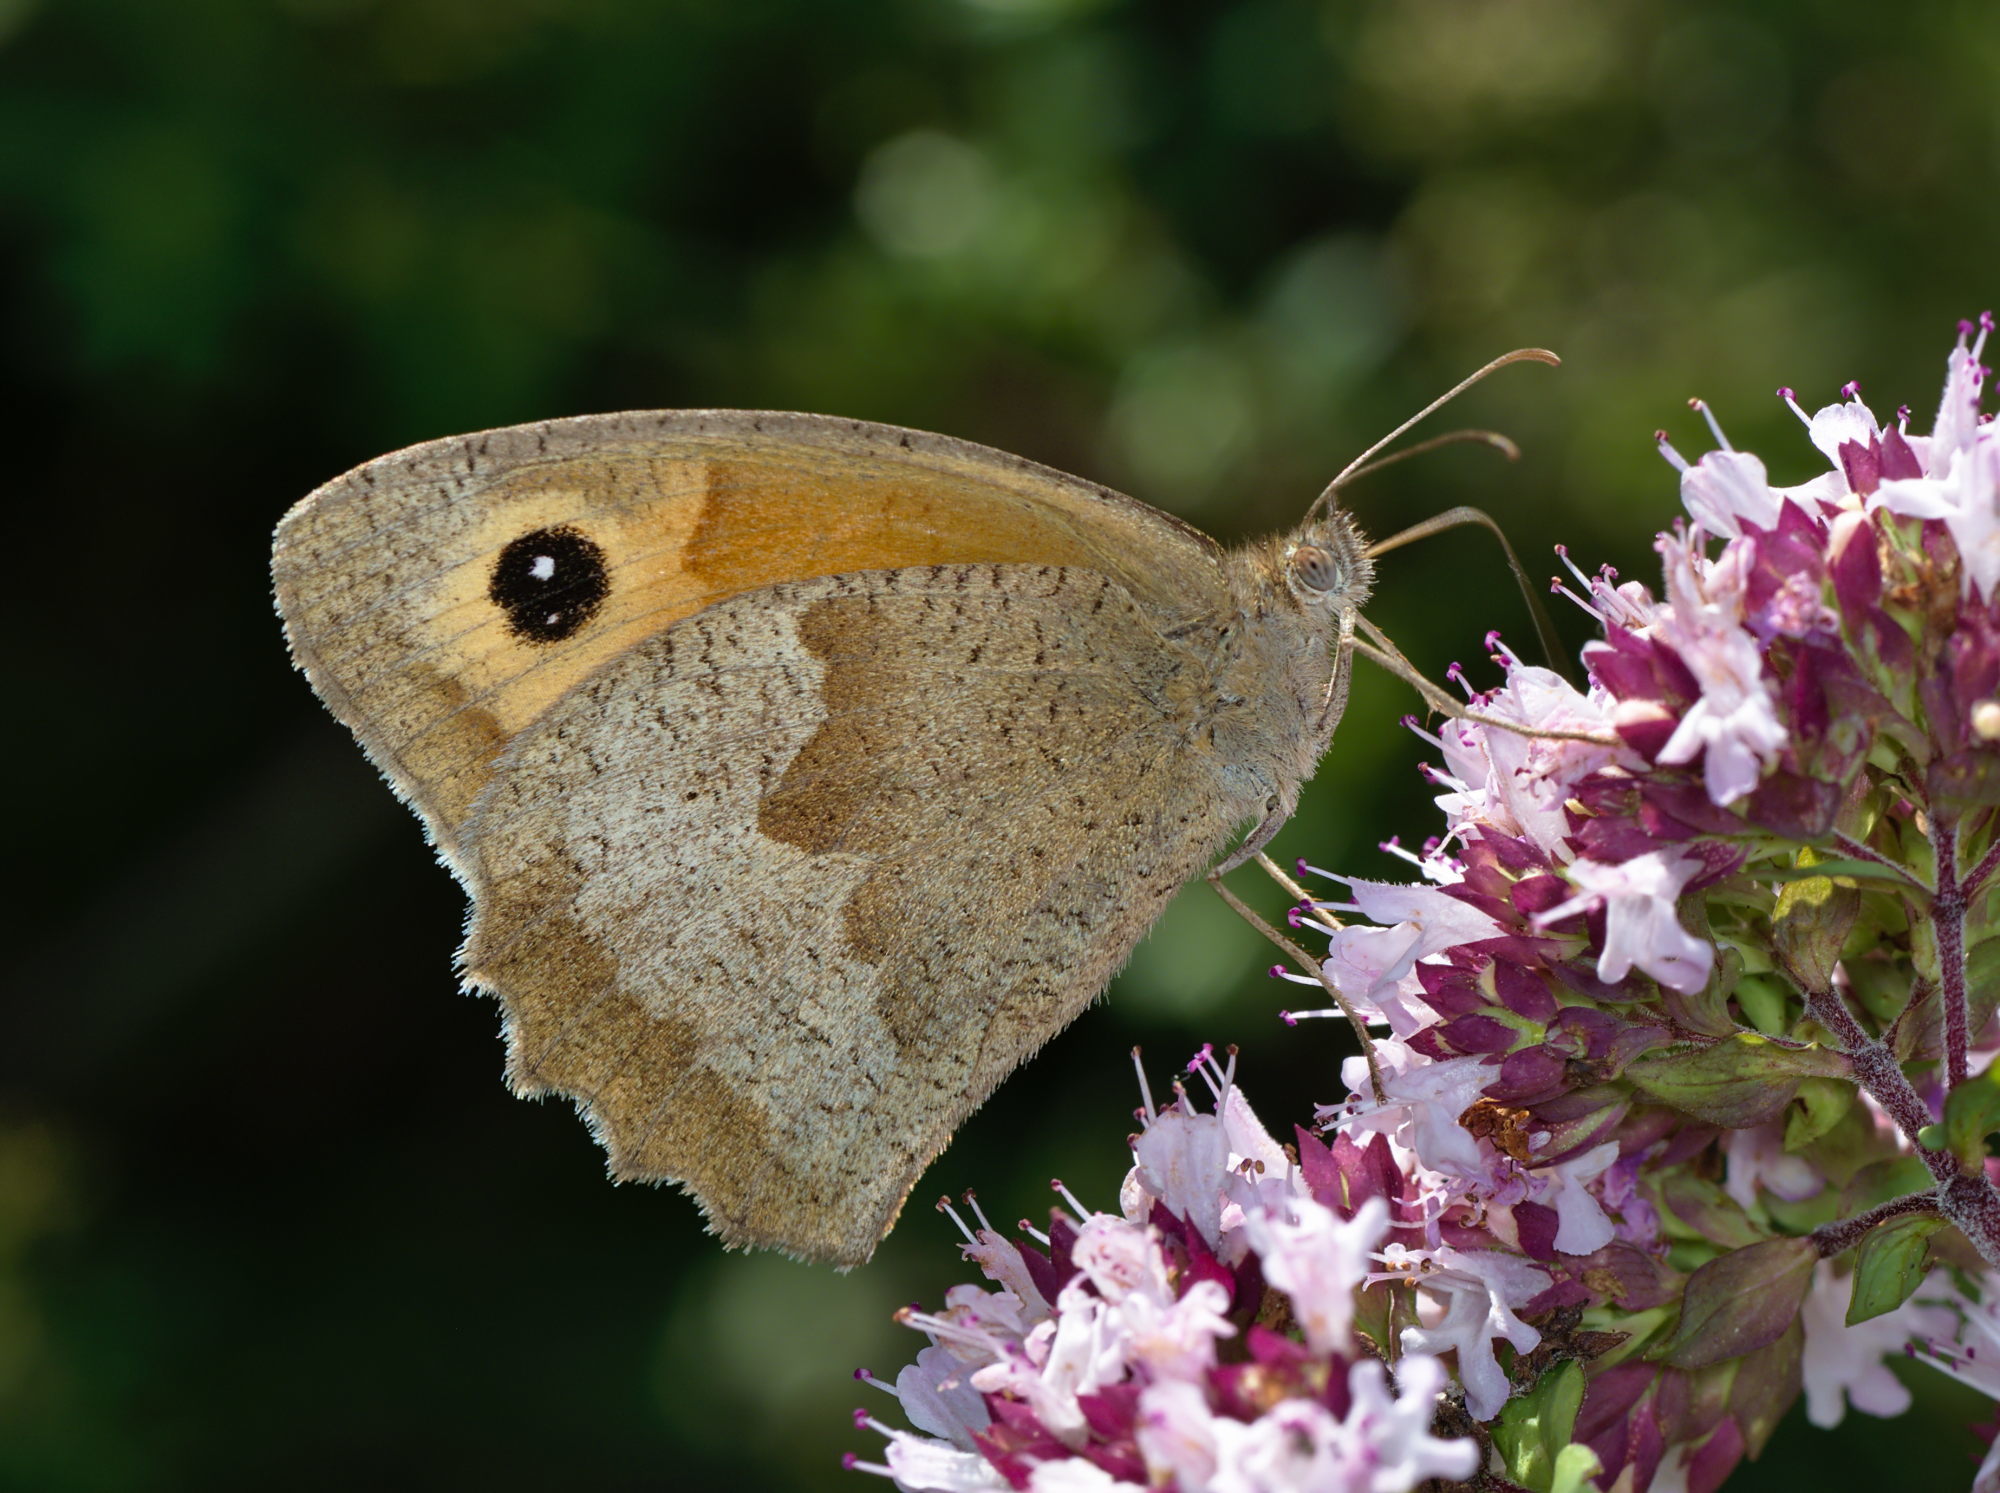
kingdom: Animalia
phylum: Arthropoda
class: Insecta
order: Lepidoptera
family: Nymphalidae
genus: Maniola
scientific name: Maniola jurtina
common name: Meadow brown
